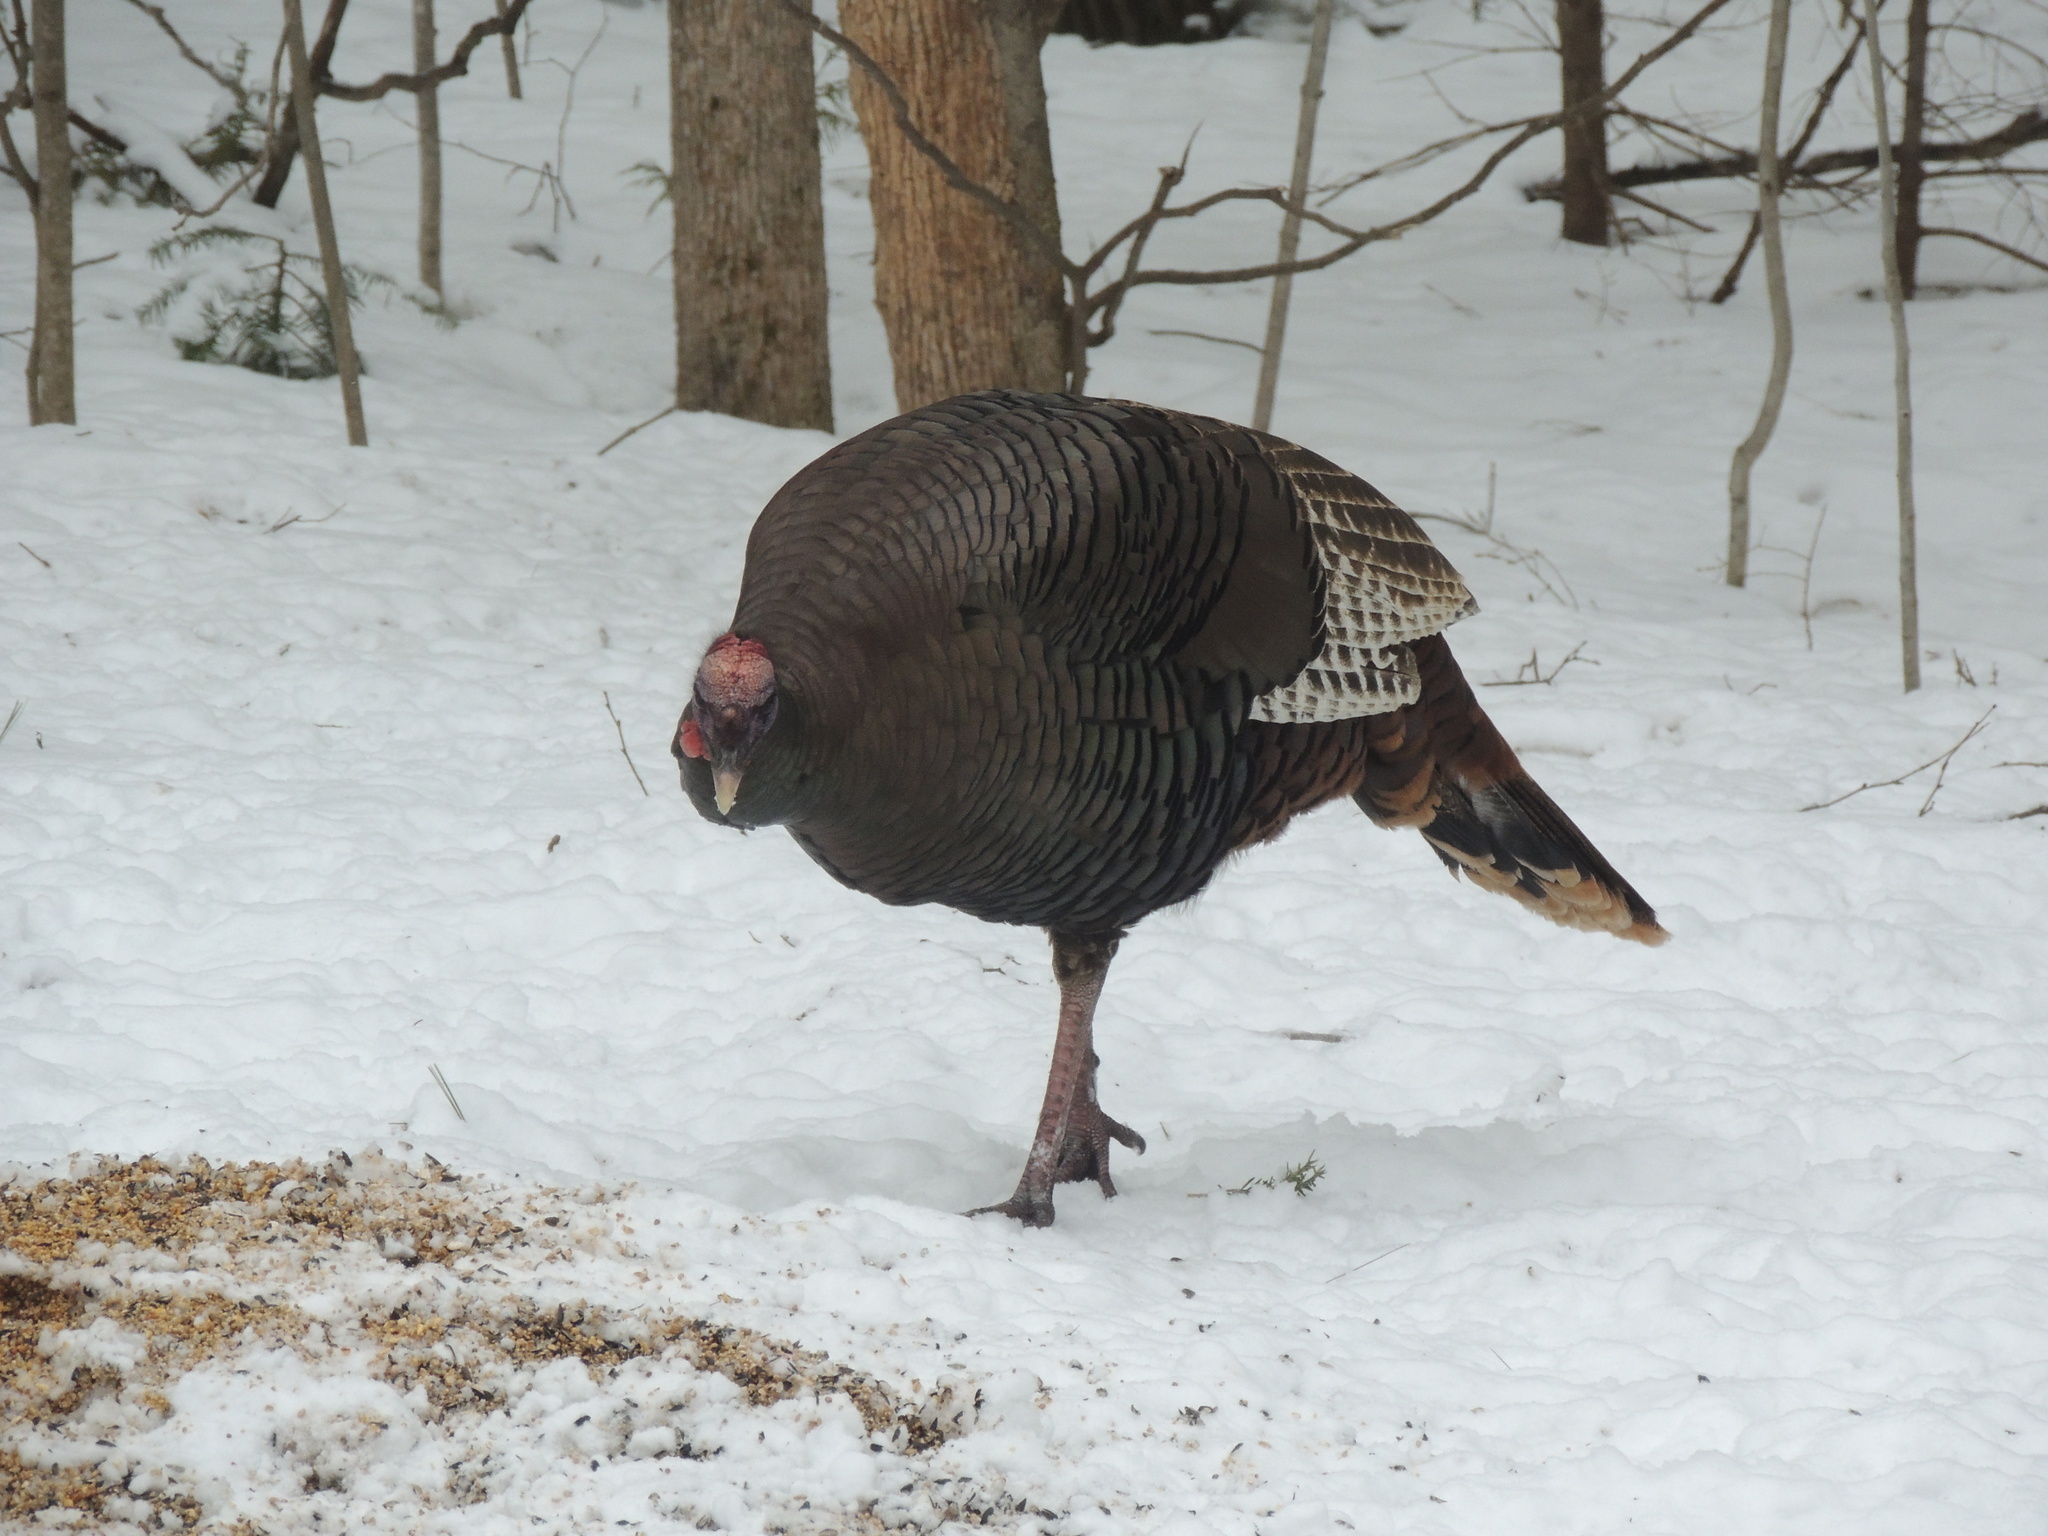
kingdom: Animalia
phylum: Chordata
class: Aves
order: Galliformes
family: Phasianidae
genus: Meleagris
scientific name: Meleagris gallopavo
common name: Wild turkey
